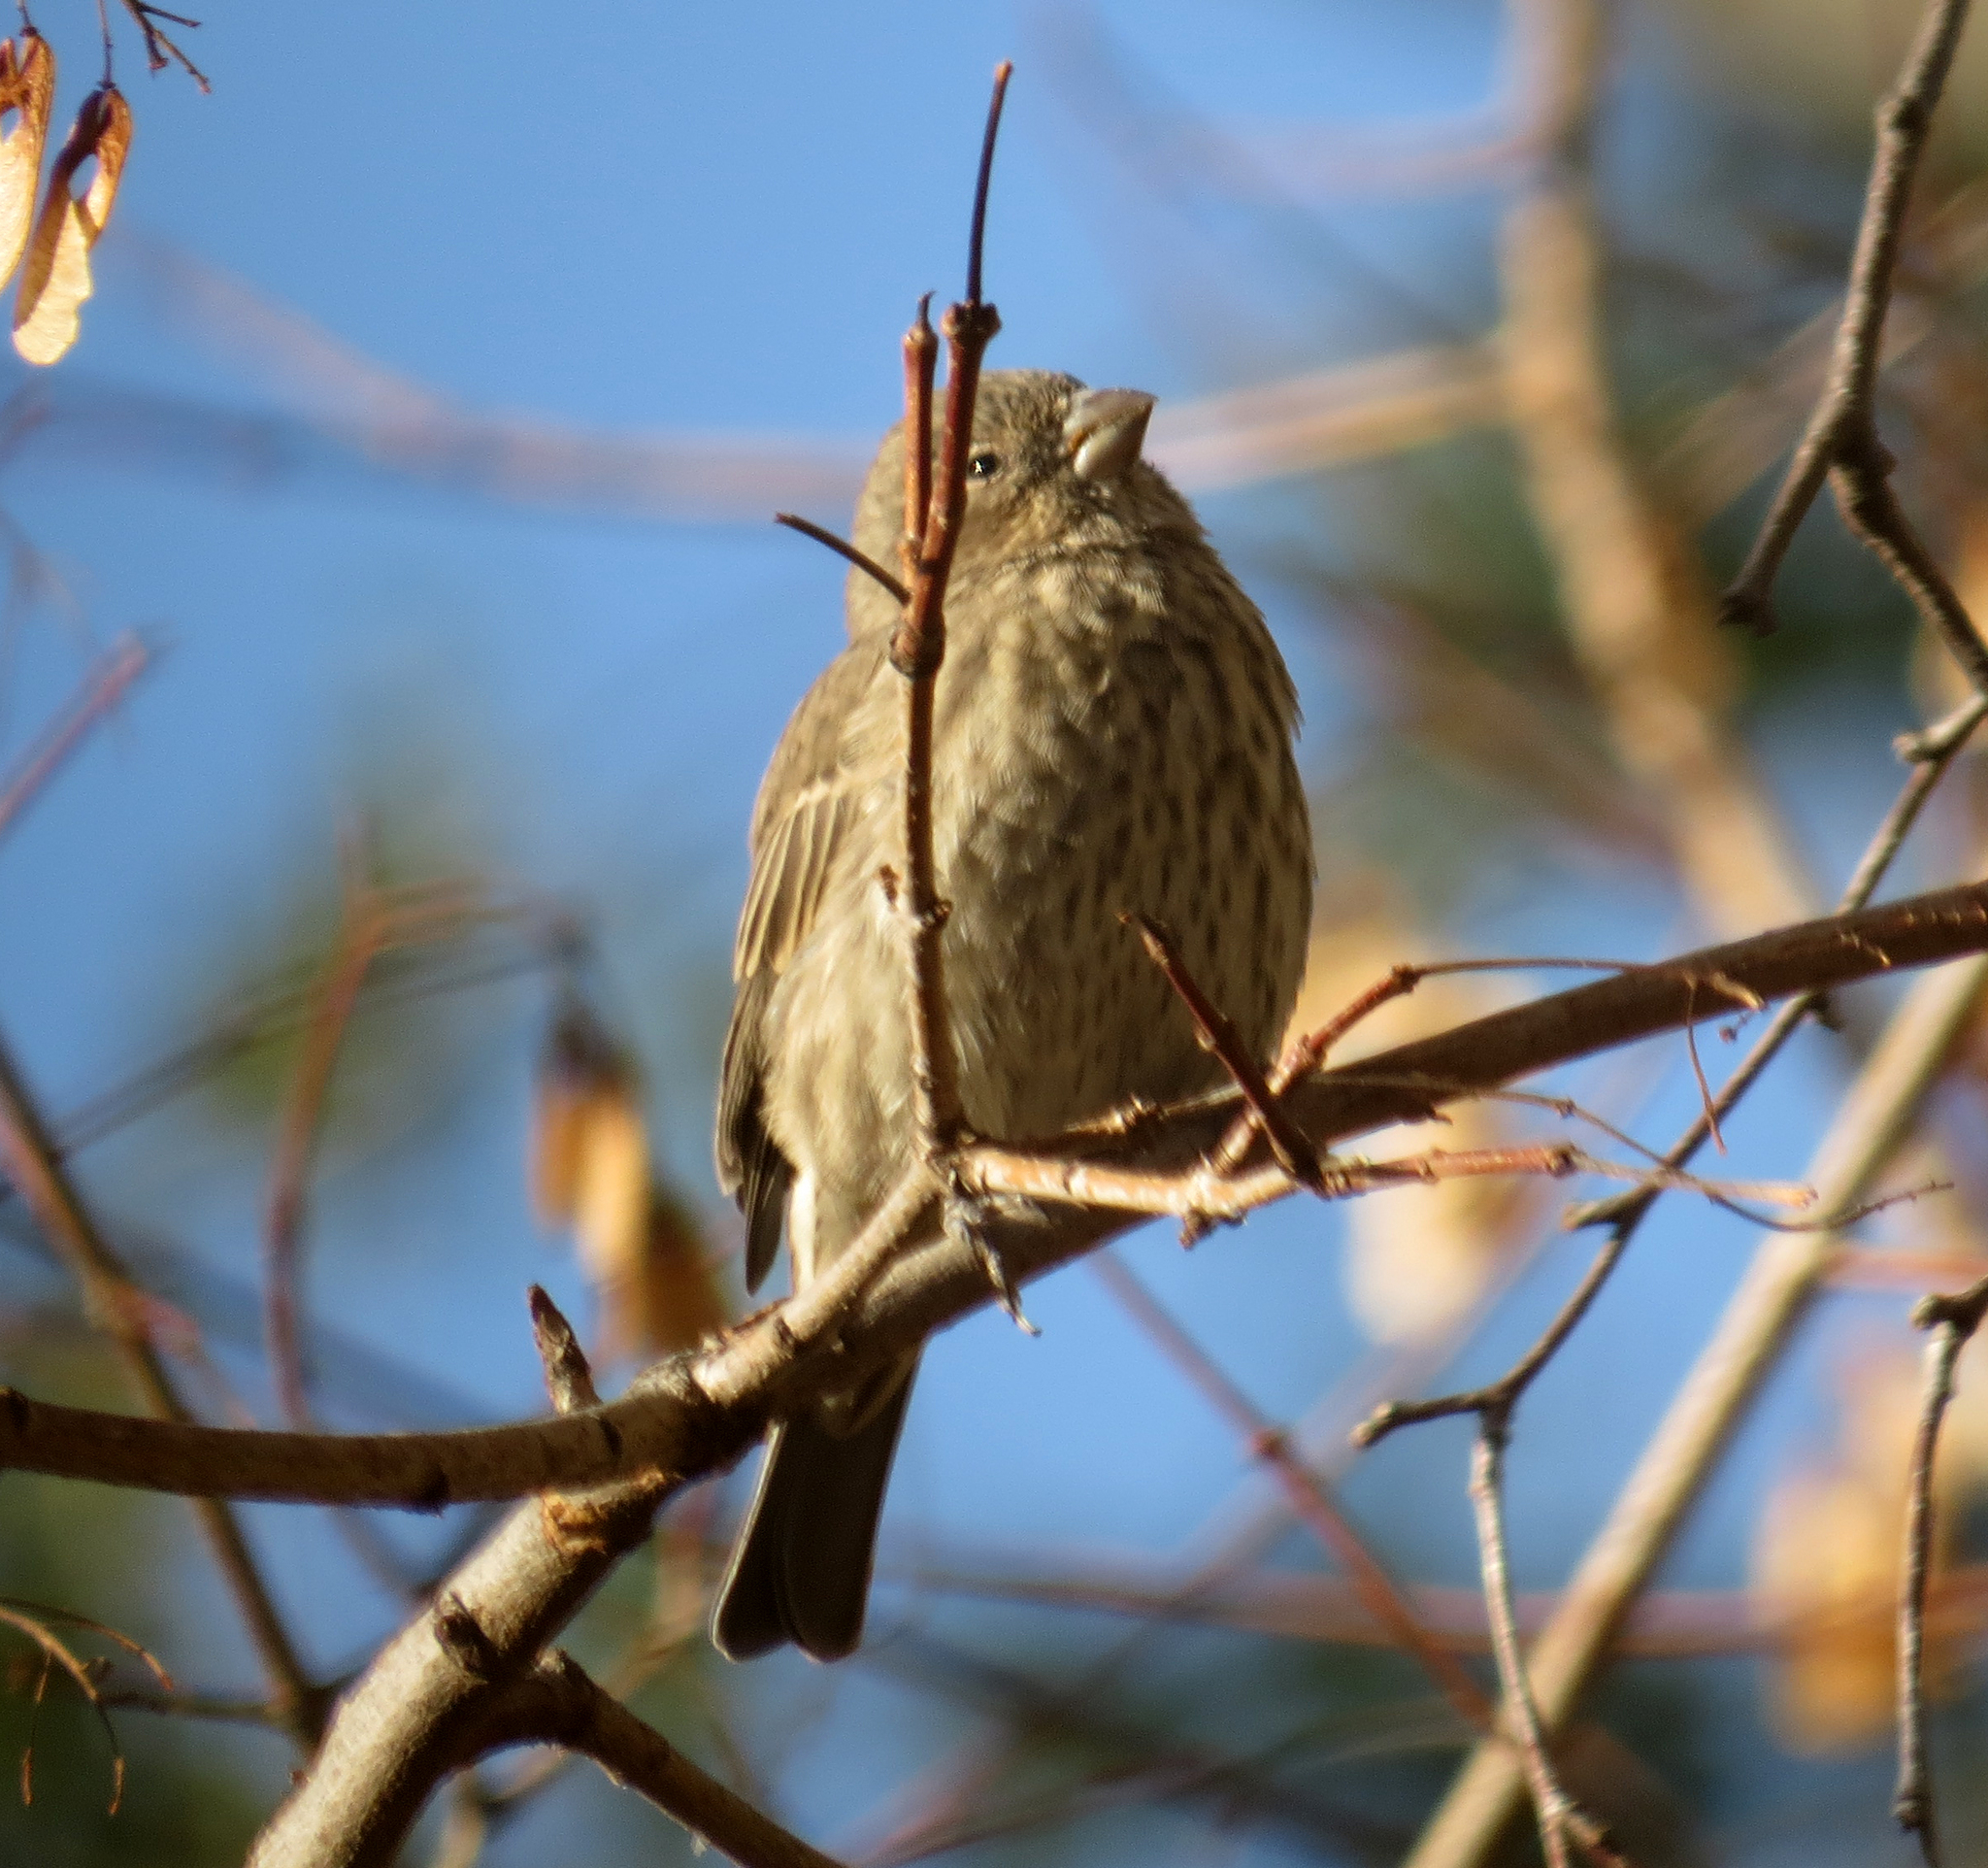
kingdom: Animalia
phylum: Chordata
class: Aves
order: Passeriformes
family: Fringillidae
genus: Haemorhous
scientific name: Haemorhous mexicanus
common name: House finch
